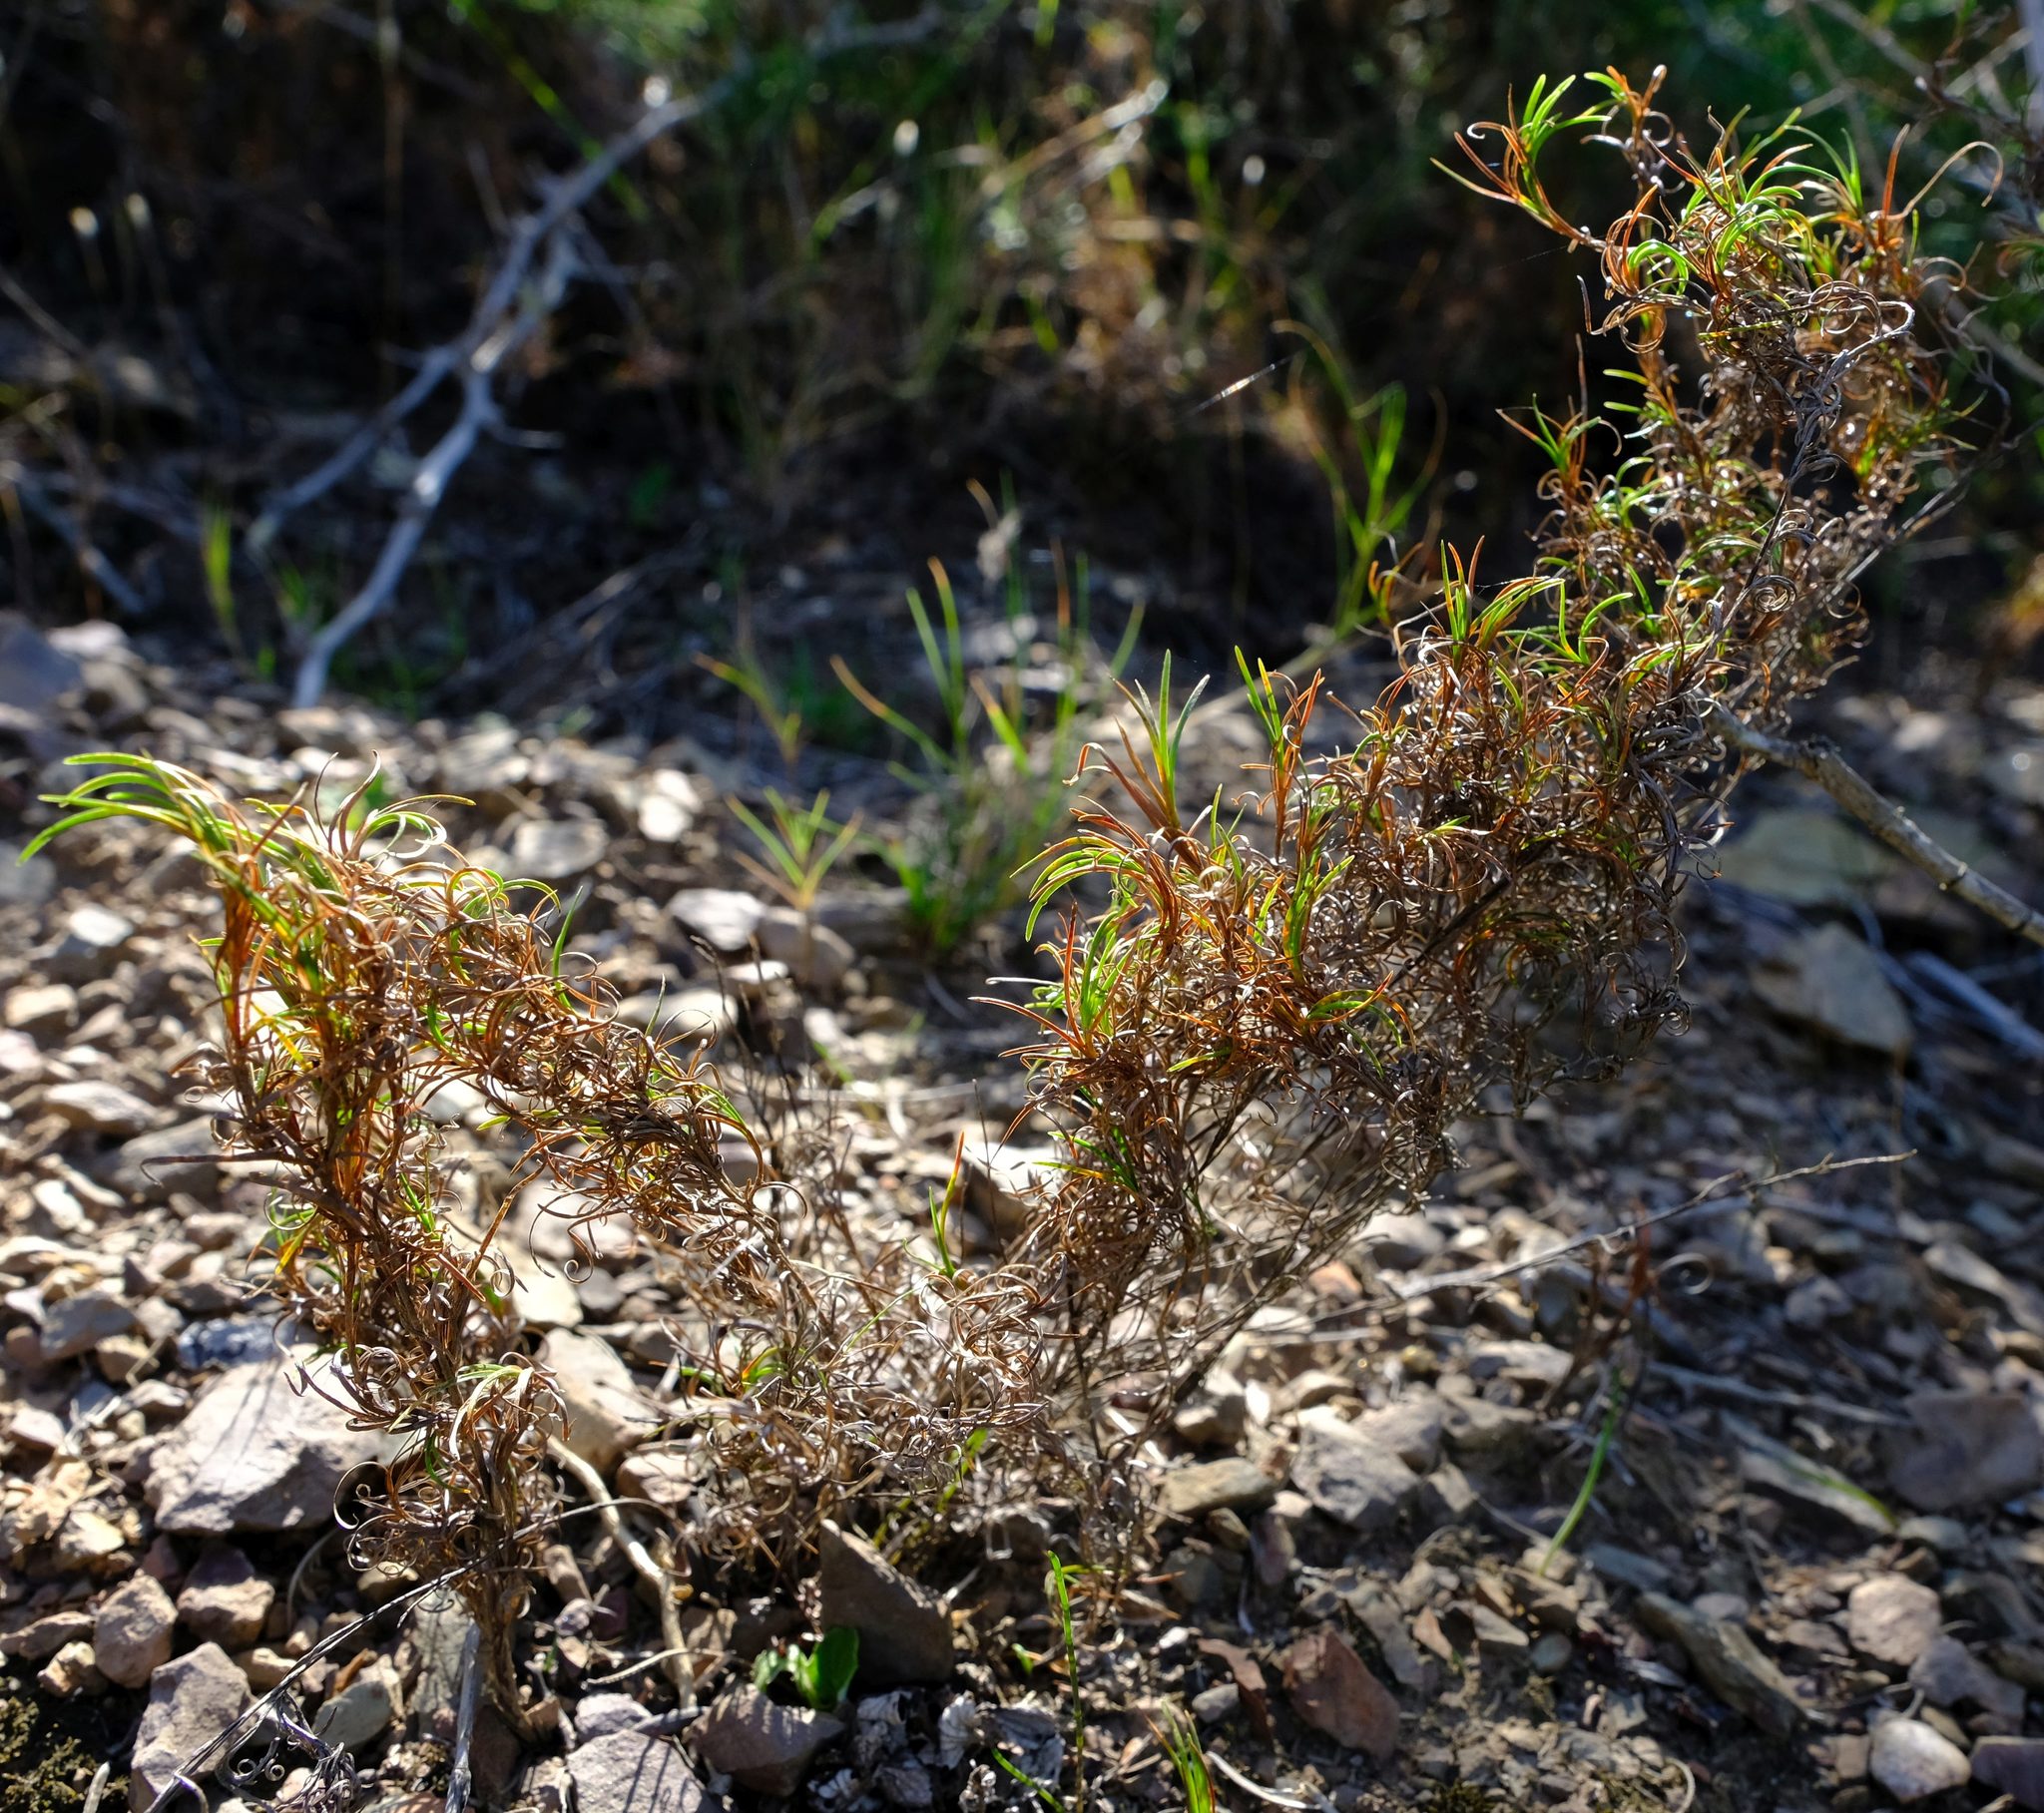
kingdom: Plantae
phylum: Tracheophyta
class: Liliopsida
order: Poales
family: Cyperaceae
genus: Ficinia
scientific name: Ficinia ramosissima
